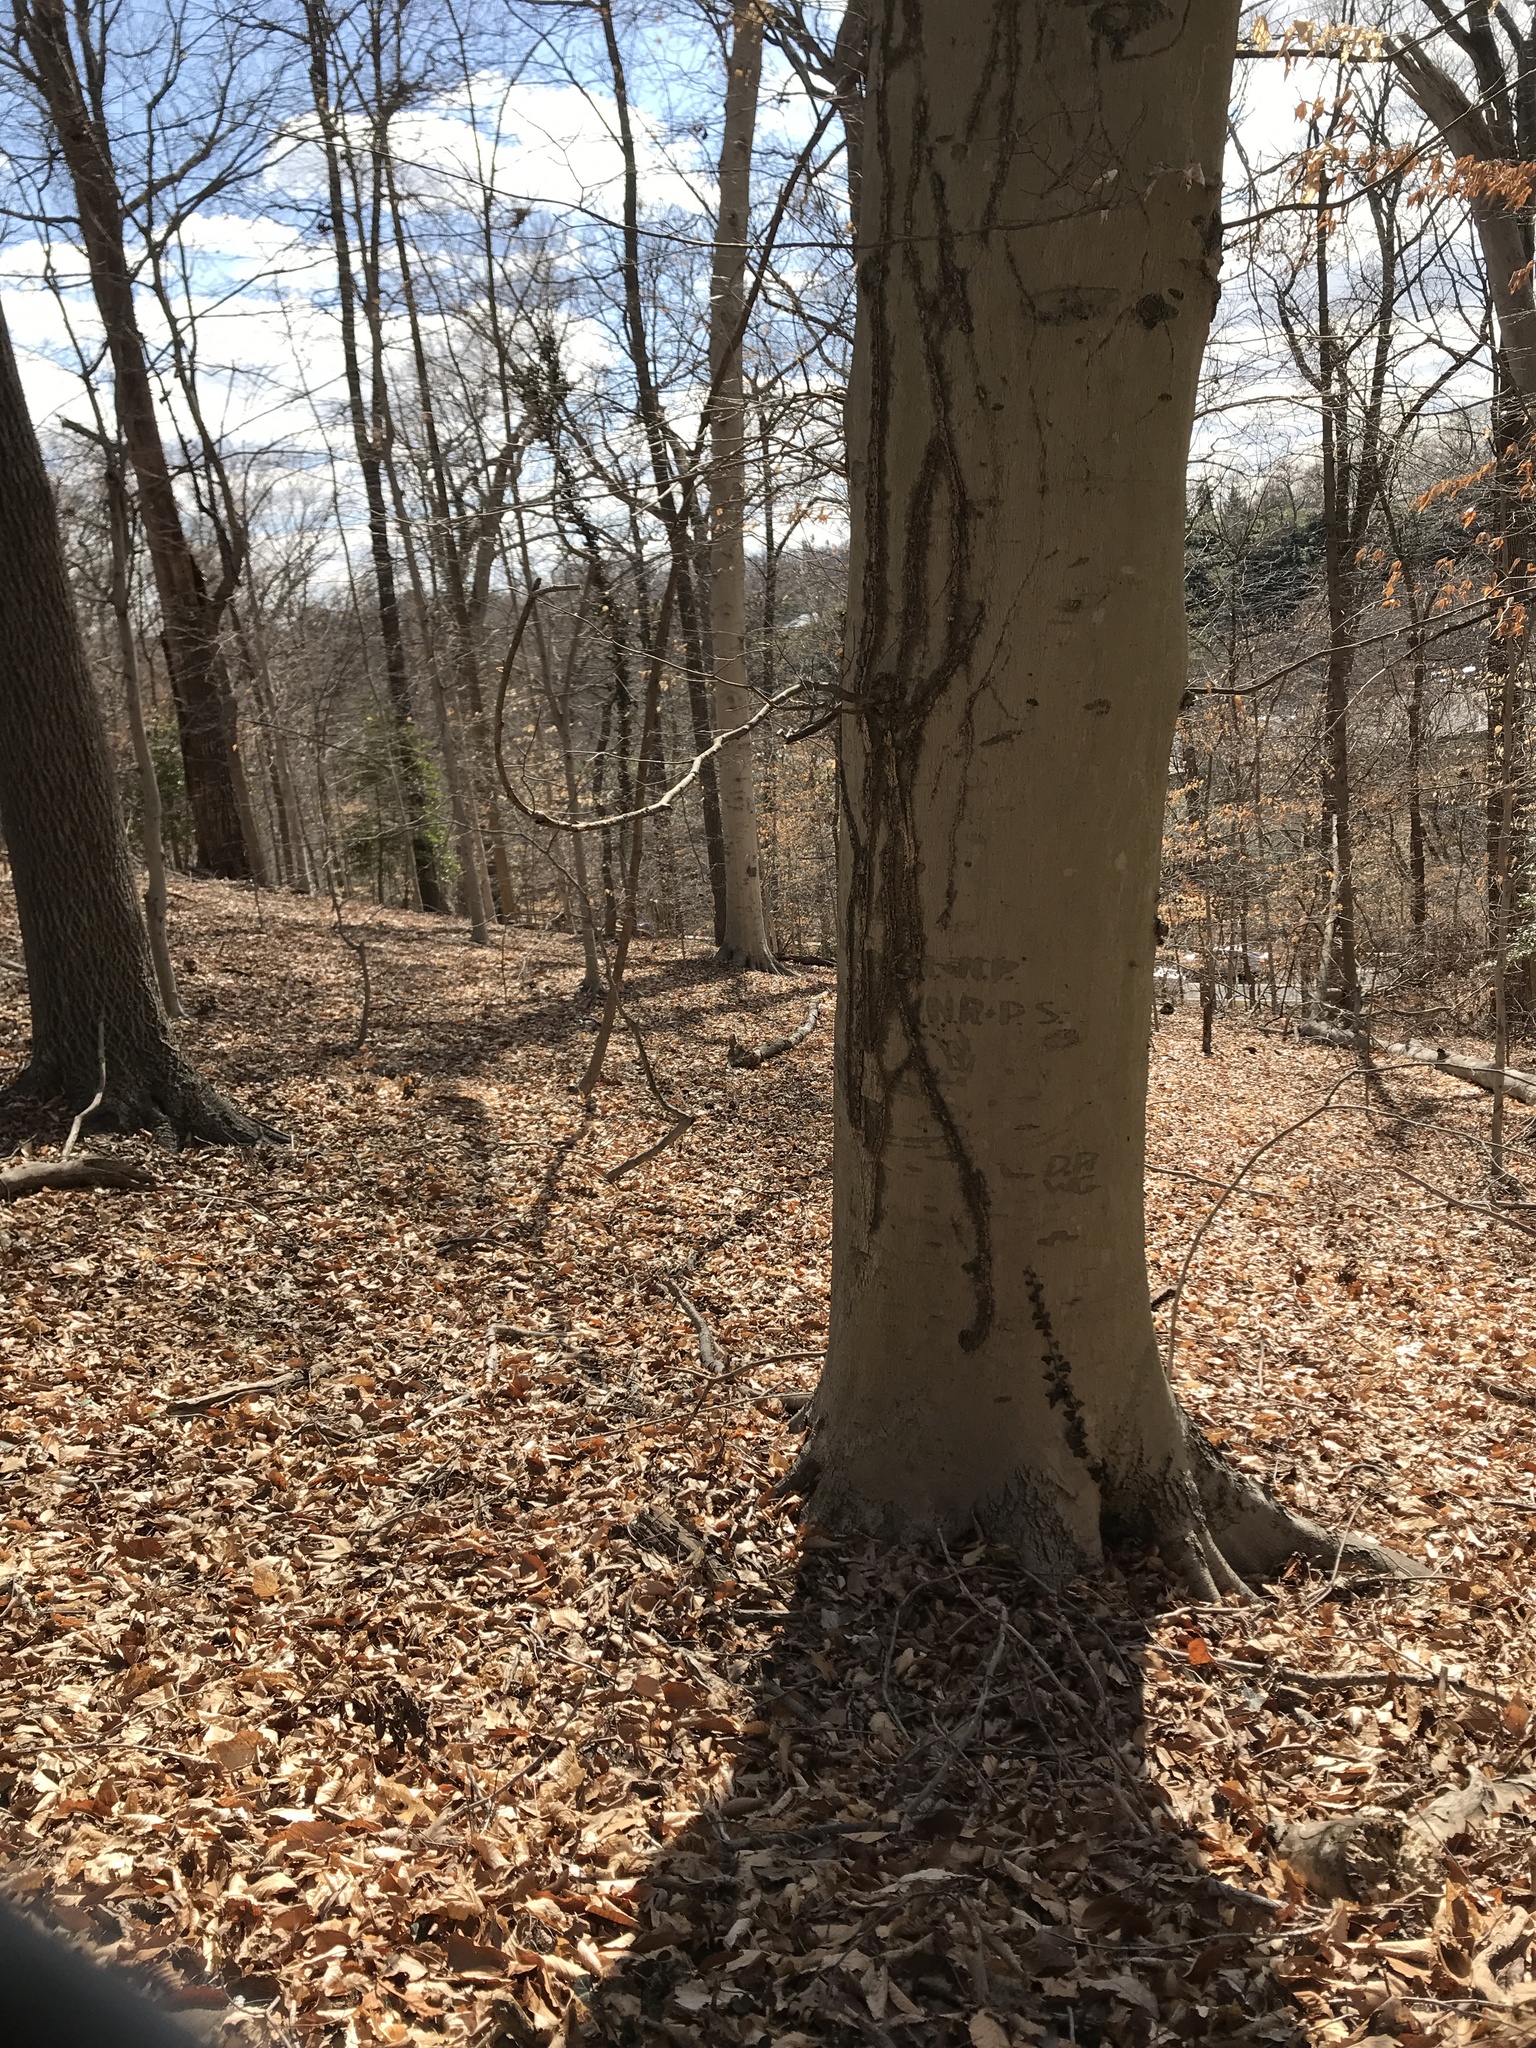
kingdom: Plantae
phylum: Tracheophyta
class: Magnoliopsida
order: Fagales
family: Fagaceae
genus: Fagus
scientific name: Fagus grandifolia
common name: American beech
